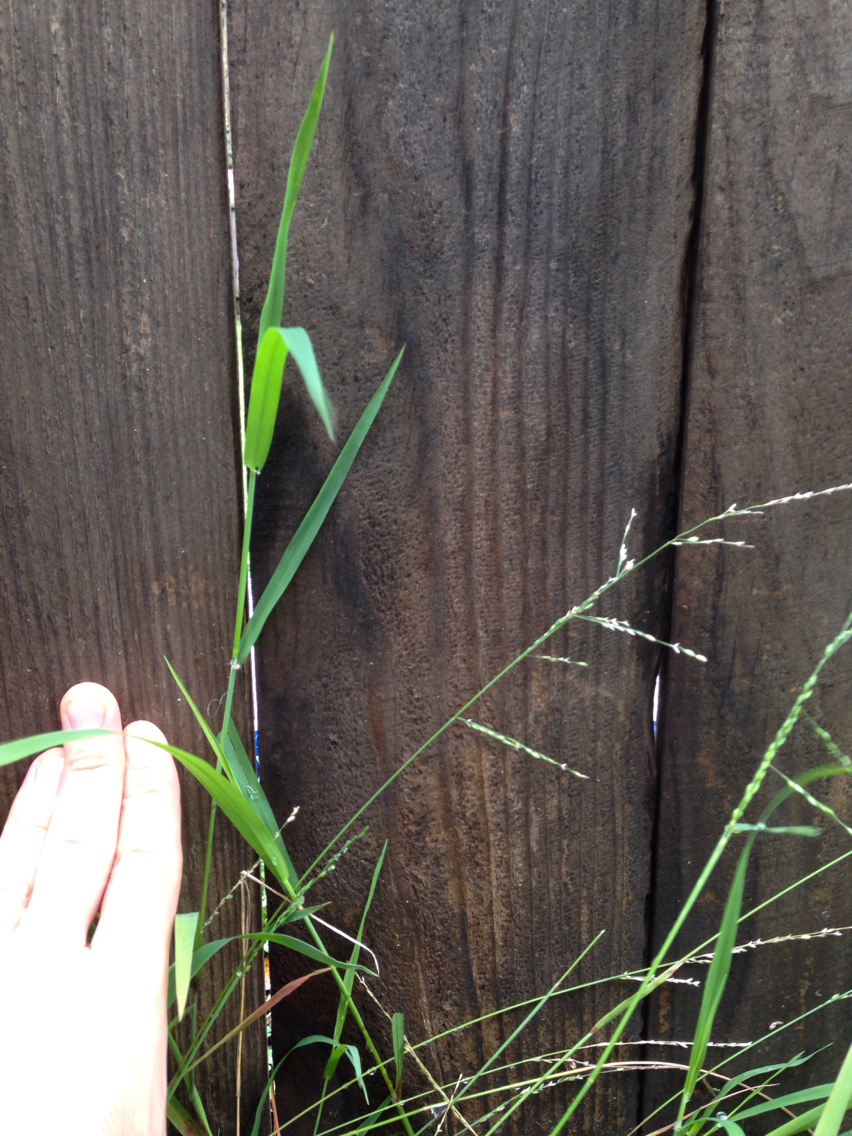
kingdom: Plantae
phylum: Tracheophyta
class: Liliopsida
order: Poales
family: Poaceae
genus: Ehrharta
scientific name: Ehrharta erecta
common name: Panic veldtgrass
